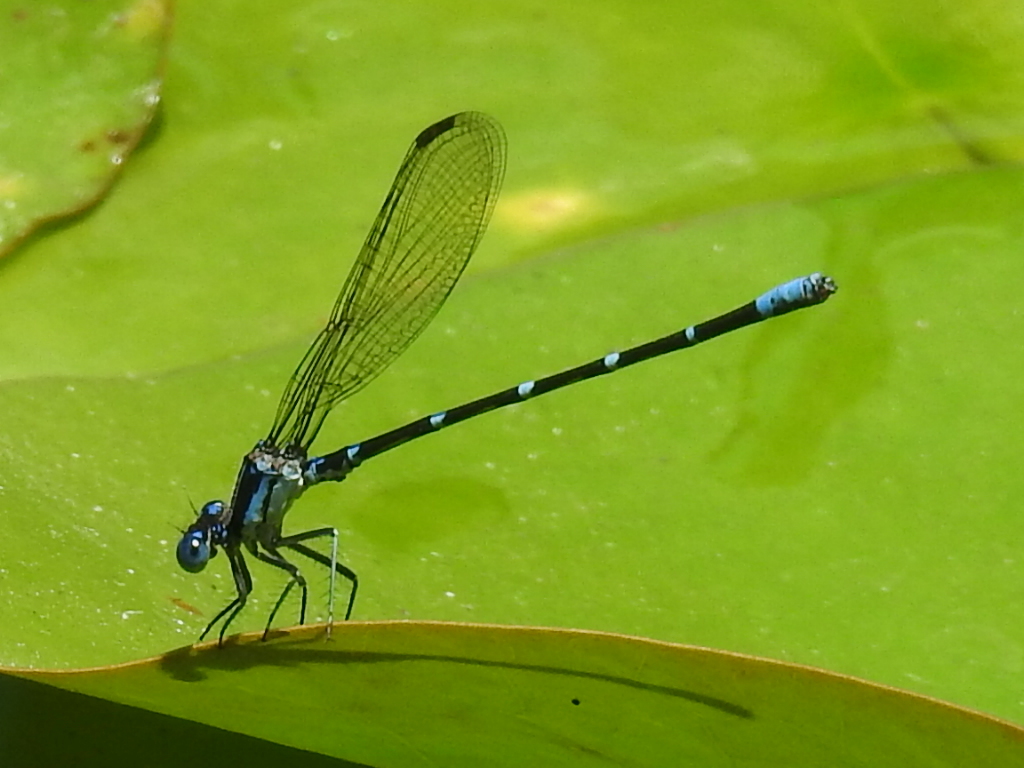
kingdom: Animalia
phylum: Arthropoda
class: Insecta
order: Odonata
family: Coenagrionidae
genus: Argia
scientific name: Argia sedula
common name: Blue-ringed dancer
